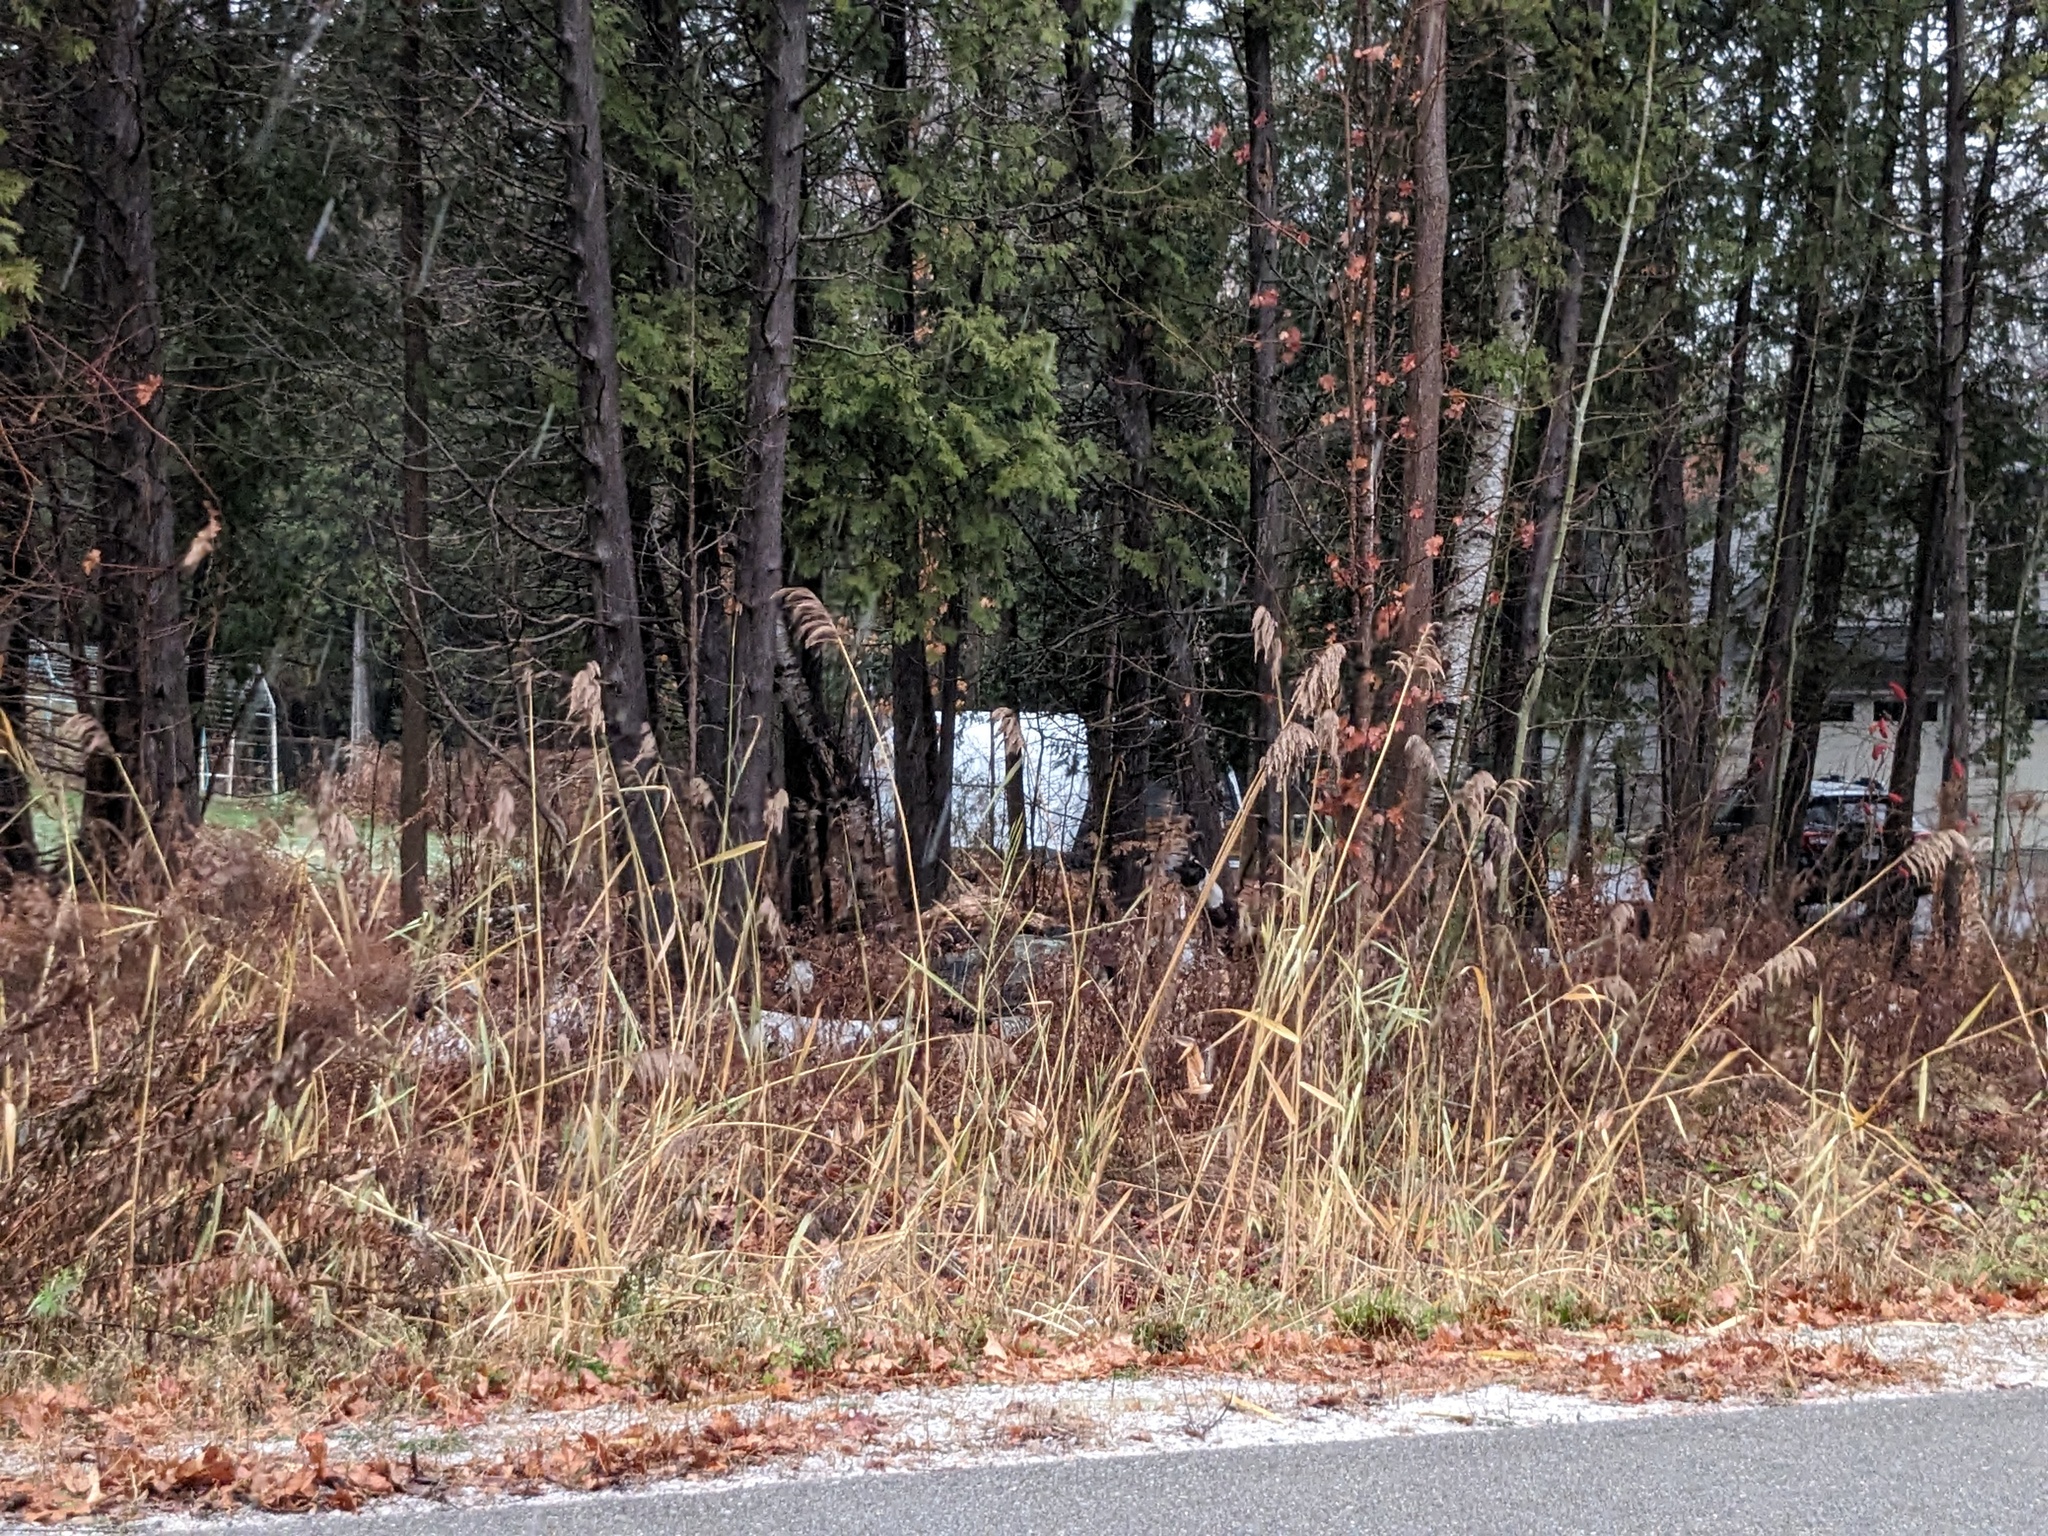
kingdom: Plantae
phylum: Tracheophyta
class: Liliopsida
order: Poales
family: Poaceae
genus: Phragmites
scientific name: Phragmites australis
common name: Common reed
